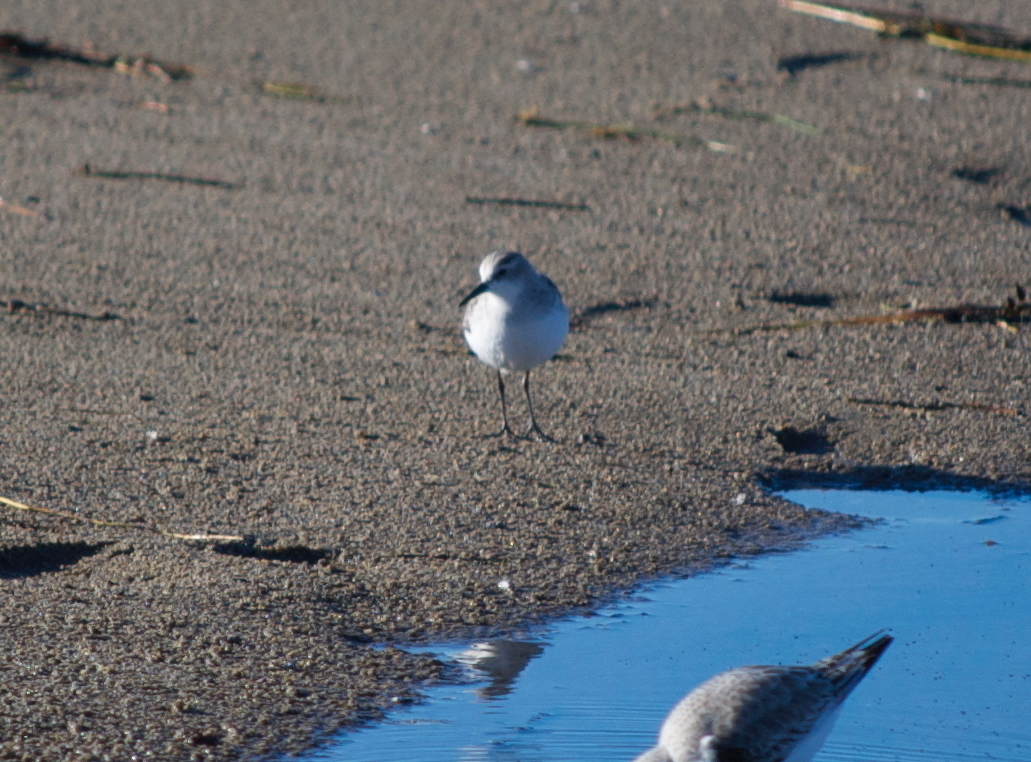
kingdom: Animalia
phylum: Chordata
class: Aves
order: Charadriiformes
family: Scolopacidae
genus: Calidris
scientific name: Calidris minuta
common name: Little stint
